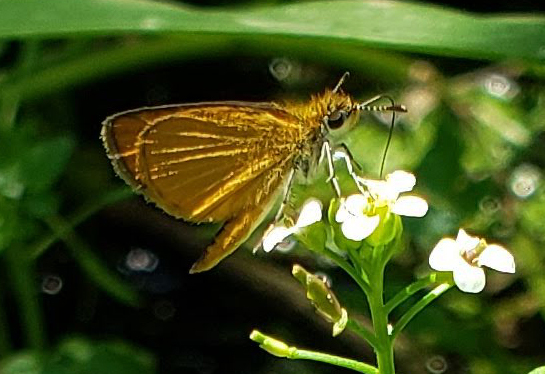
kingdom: Animalia
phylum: Arthropoda
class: Insecta
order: Lepidoptera
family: Hesperiidae
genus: Ancyloxypha
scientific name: Ancyloxypha numitor
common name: Least skipper
